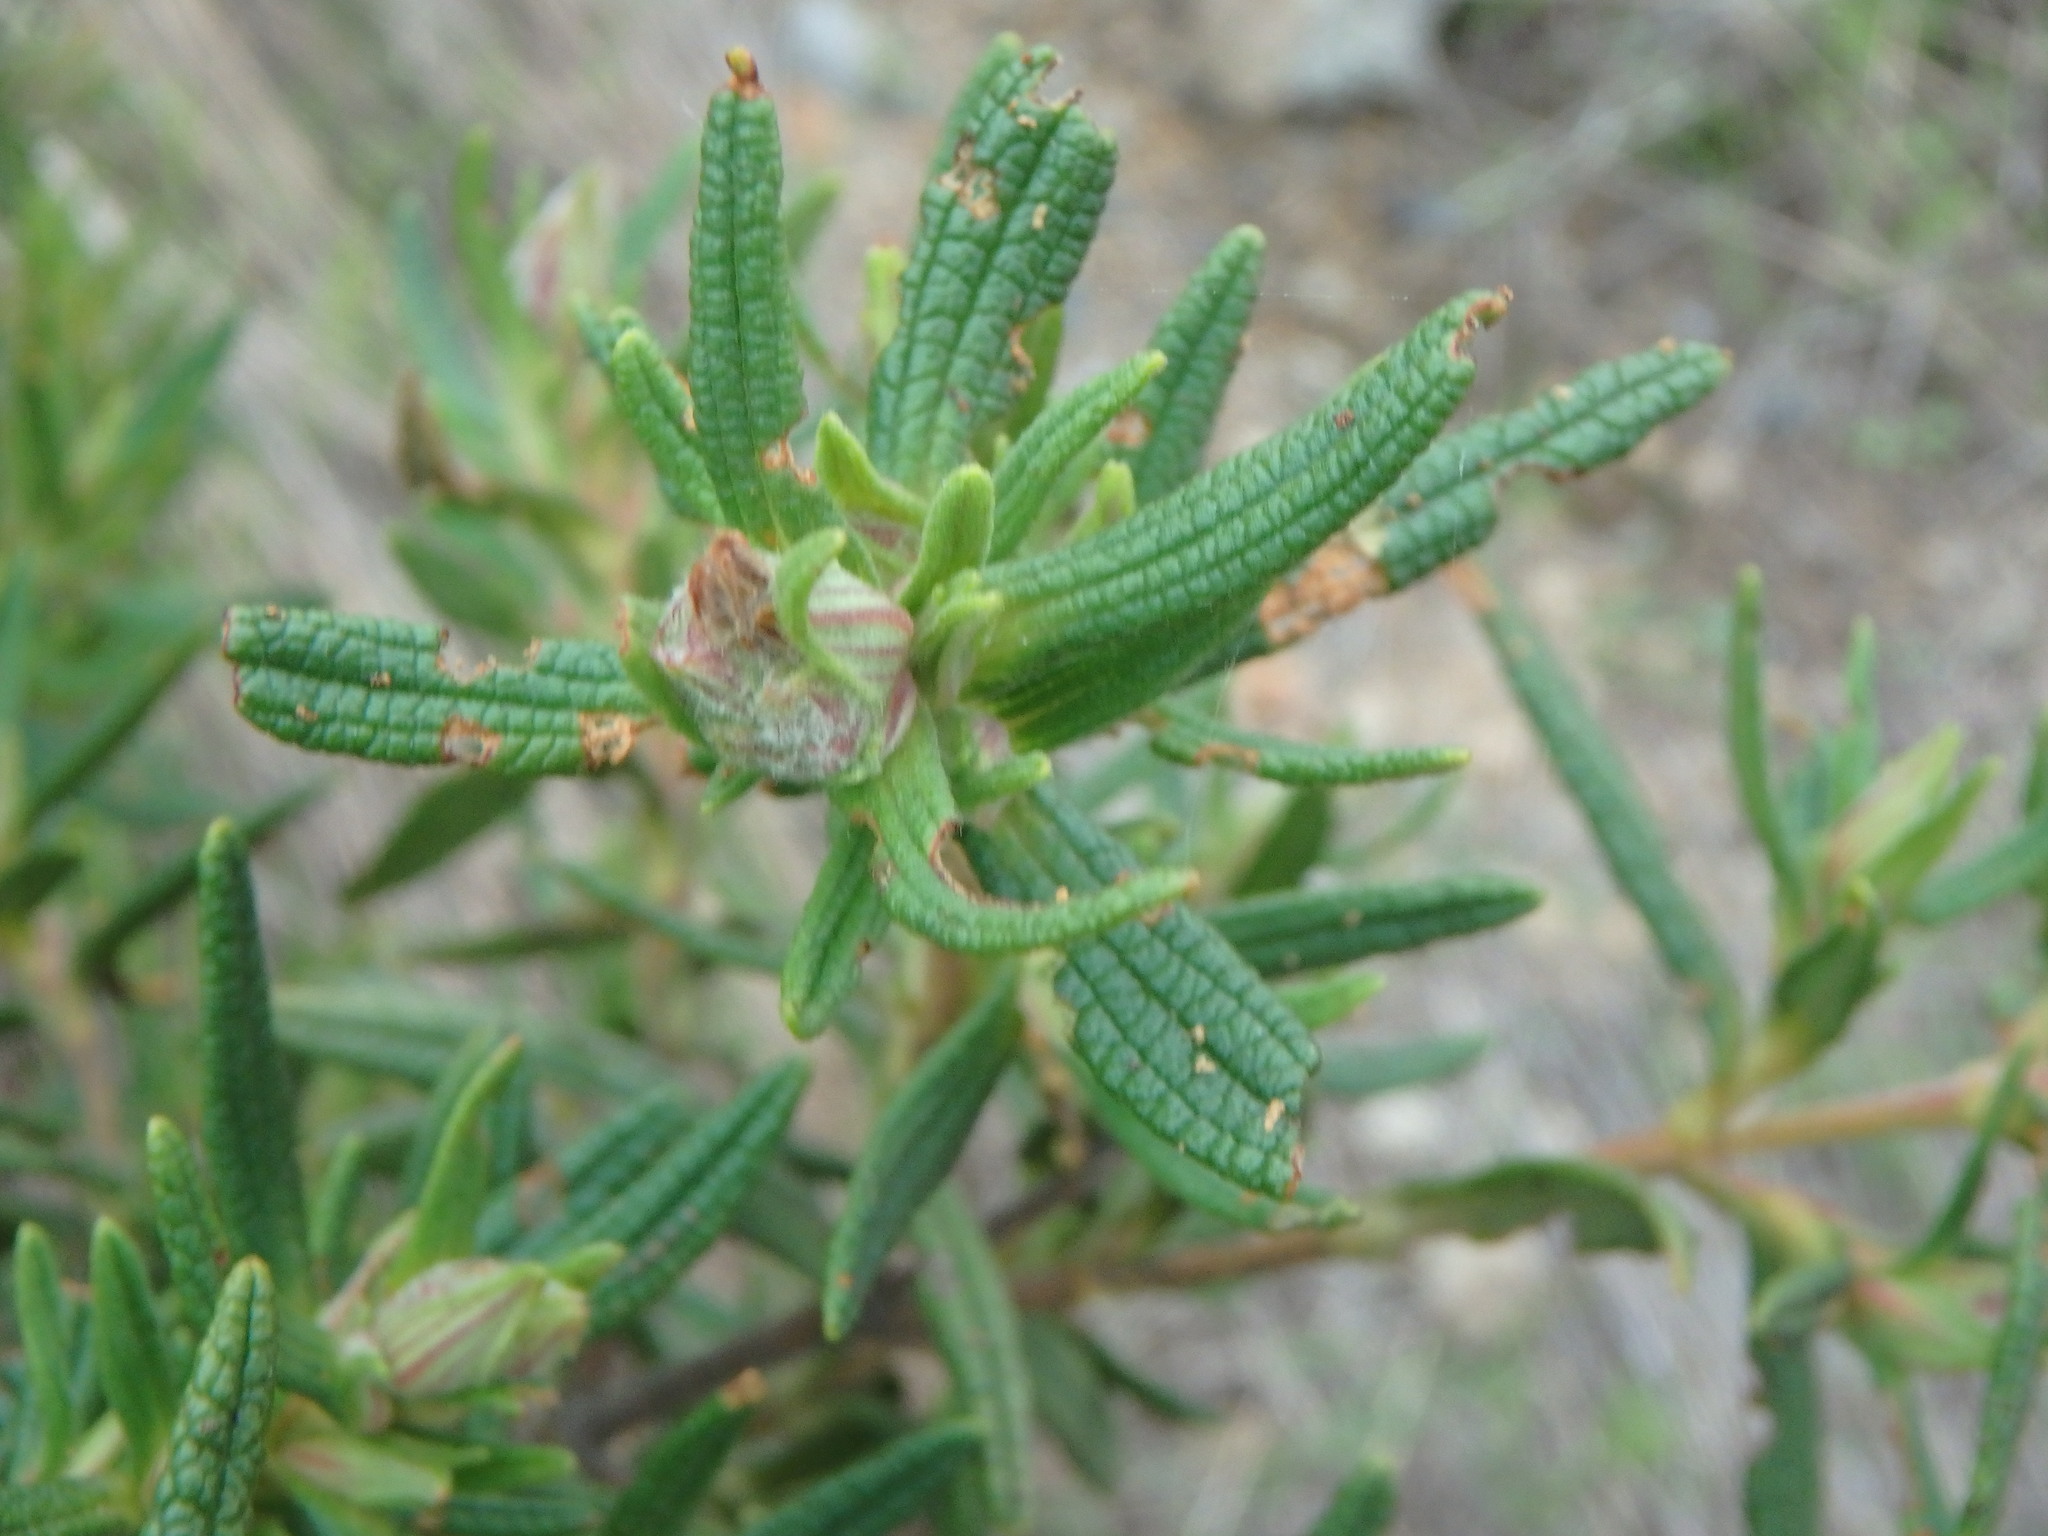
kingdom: Plantae
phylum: Tracheophyta
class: Magnoliopsida
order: Malvales
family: Cistaceae
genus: Cistus
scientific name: Cistus monspeliensis
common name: Montpelier cistus
